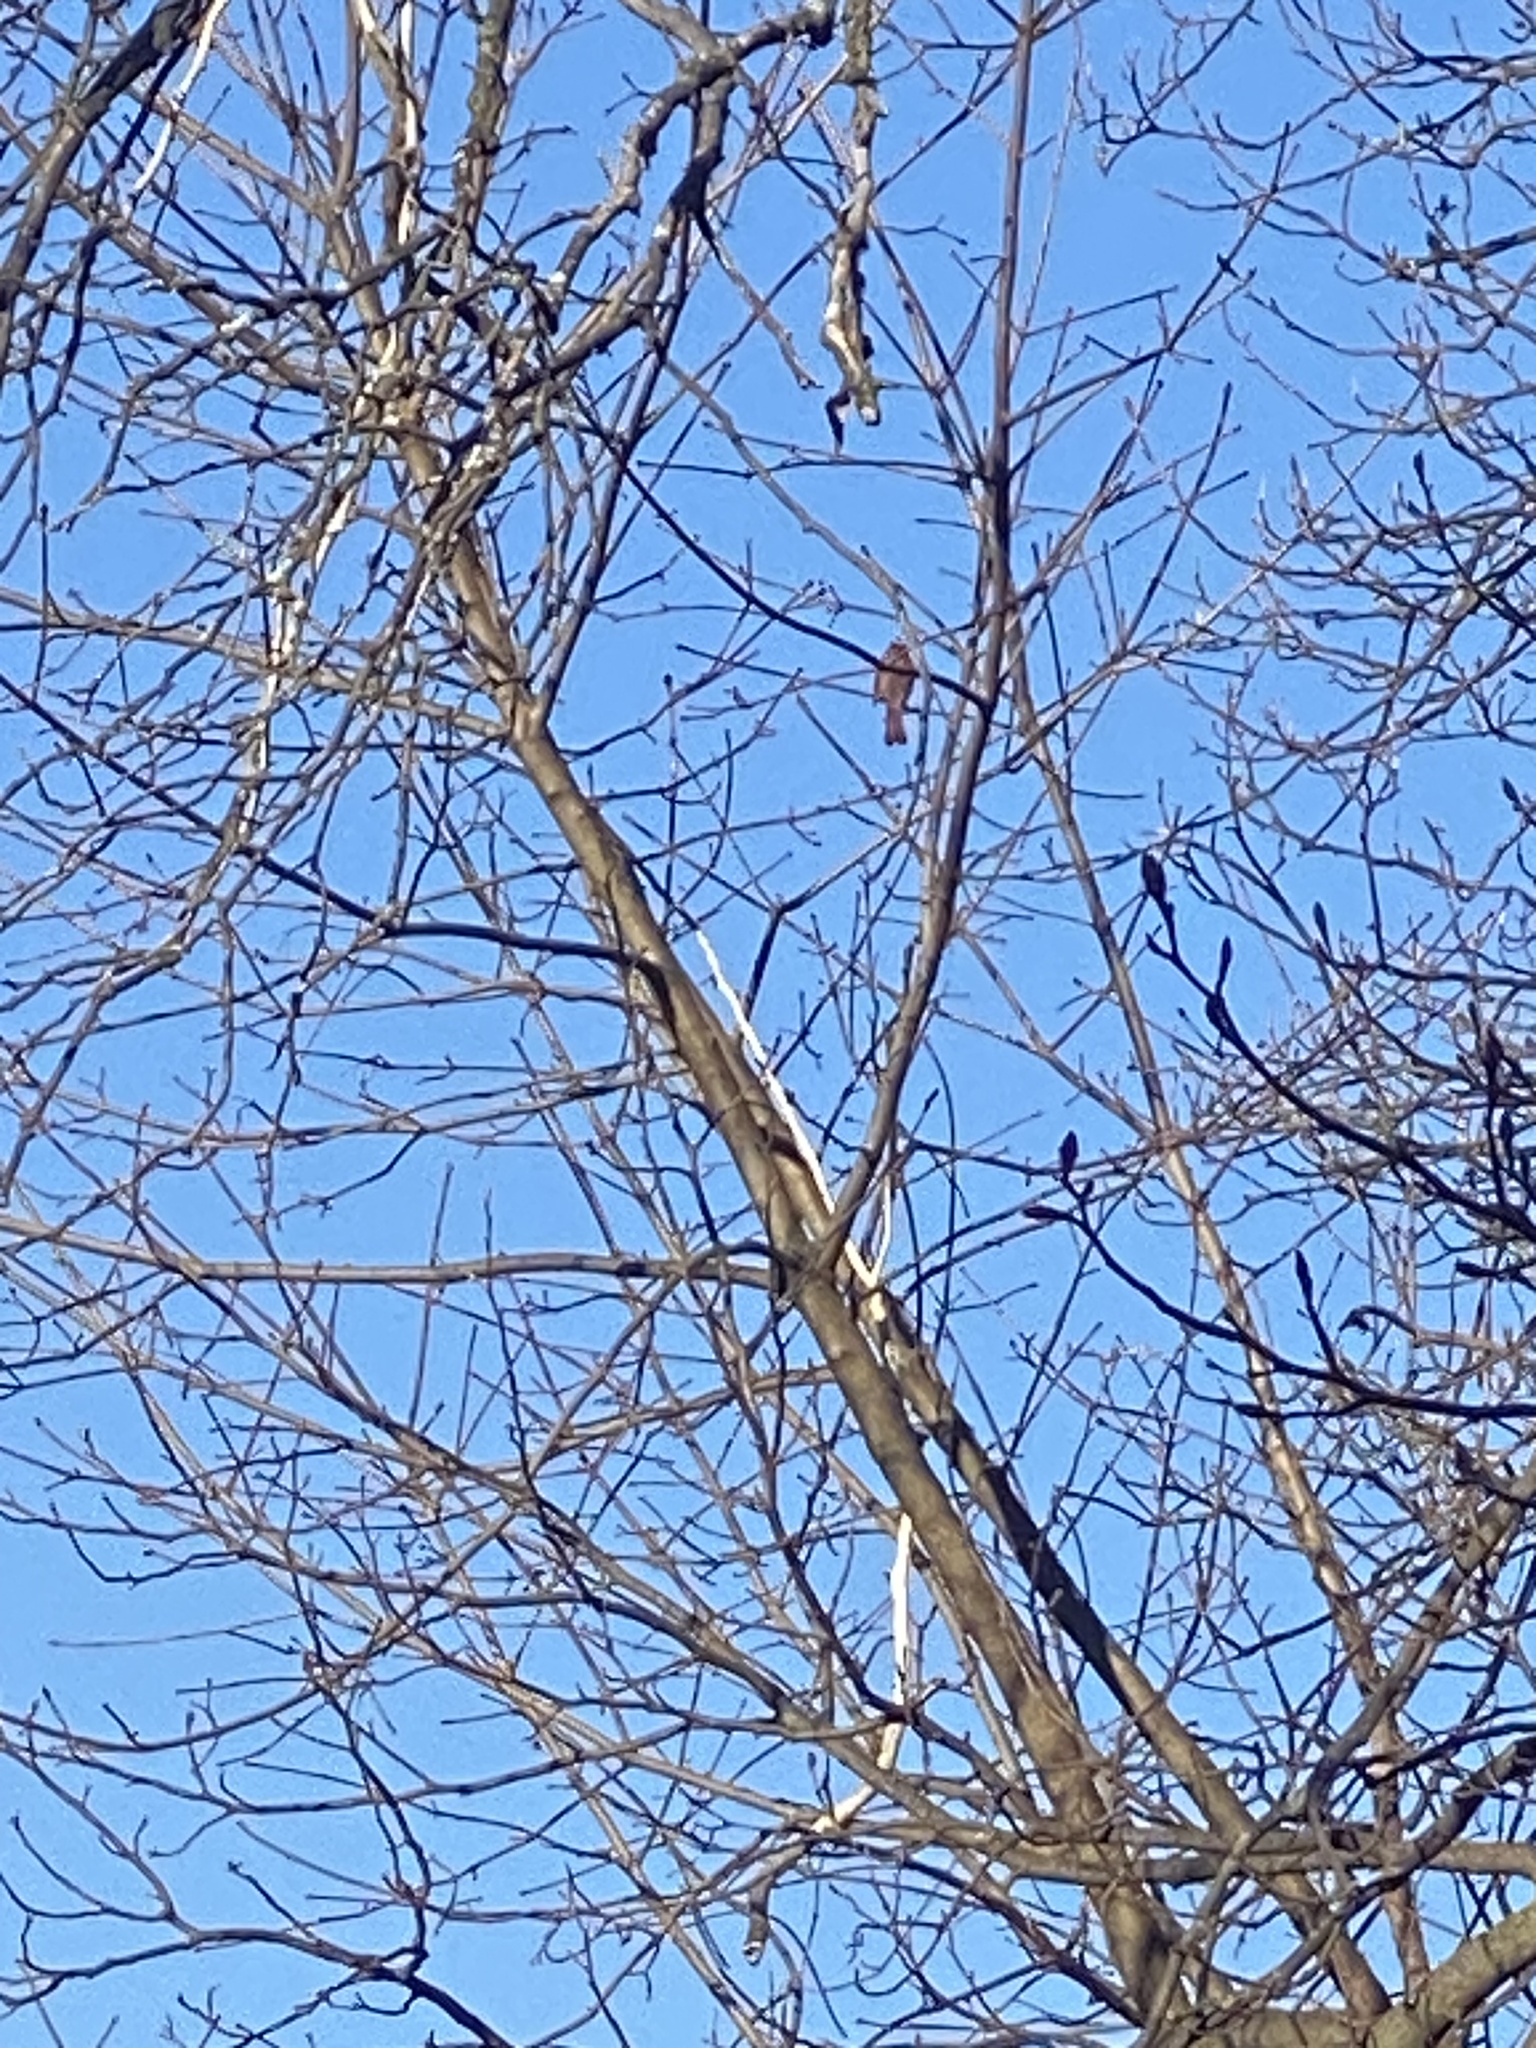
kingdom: Animalia
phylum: Chordata
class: Aves
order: Passeriformes
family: Cardinalidae
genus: Cardinalis
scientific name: Cardinalis cardinalis
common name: Northern cardinal
